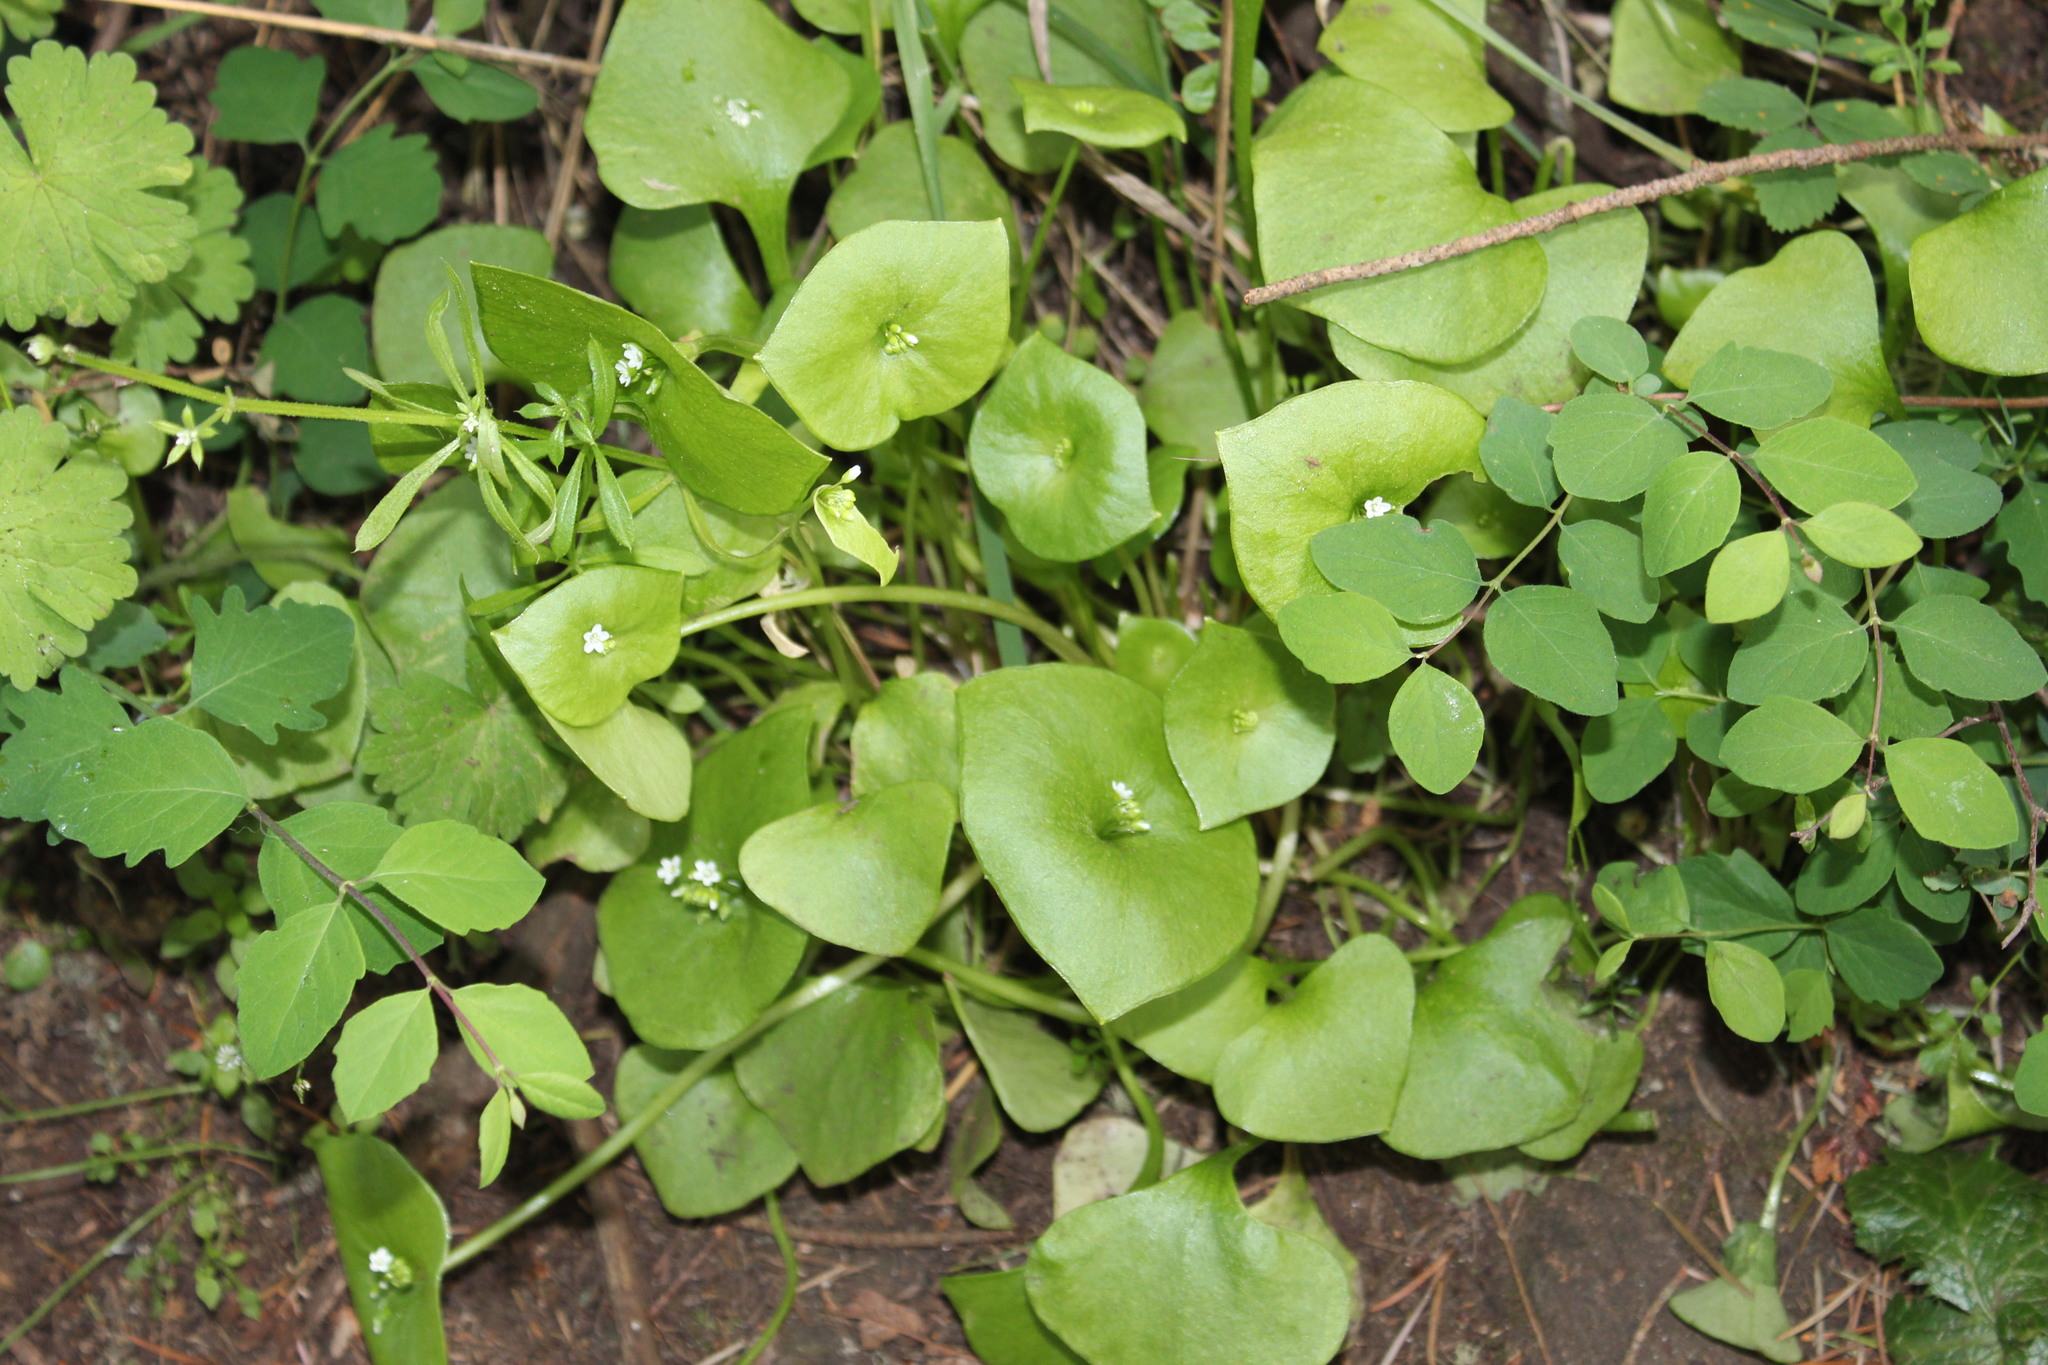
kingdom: Plantae
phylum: Tracheophyta
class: Magnoliopsida
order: Caryophyllales
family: Montiaceae
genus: Claytonia
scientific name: Claytonia perfoliata
